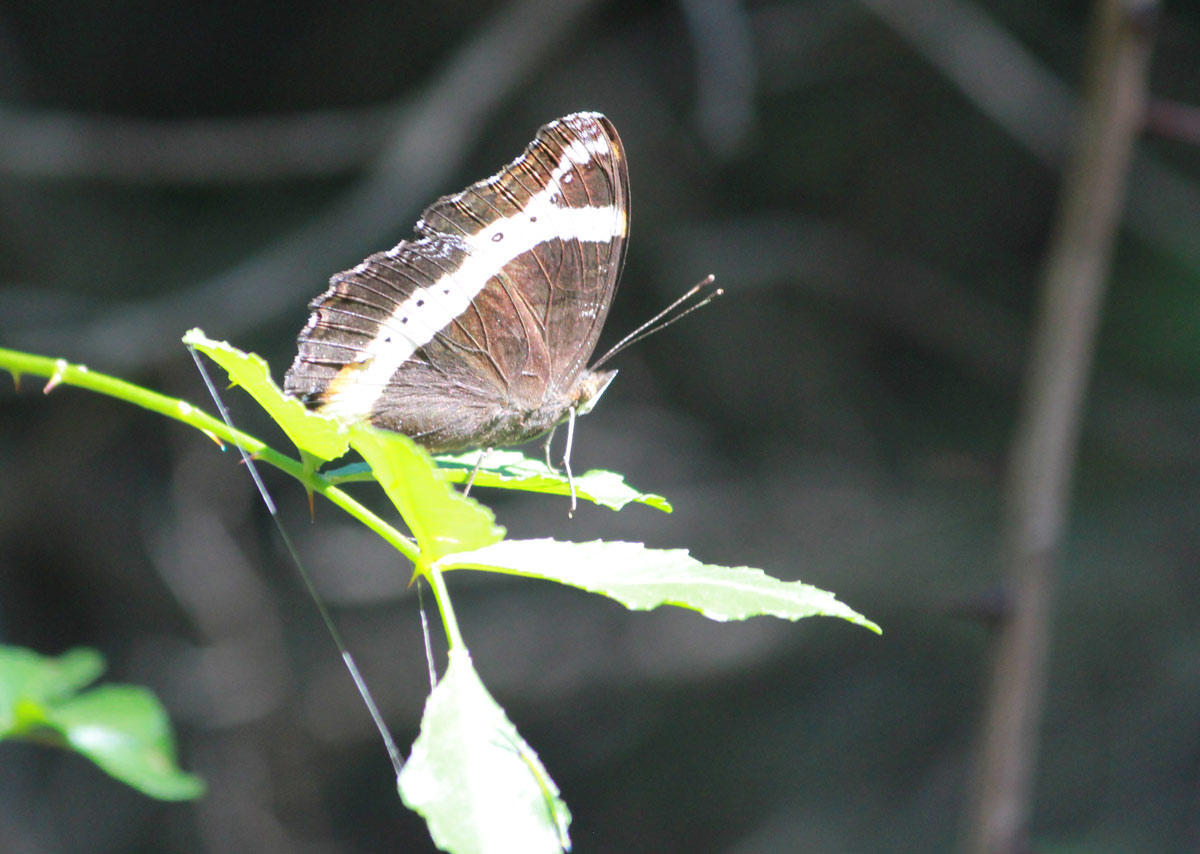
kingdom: Animalia
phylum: Arthropoda
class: Insecta
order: Lepidoptera
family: Nymphalidae
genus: Junonia
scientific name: Junonia archesia
